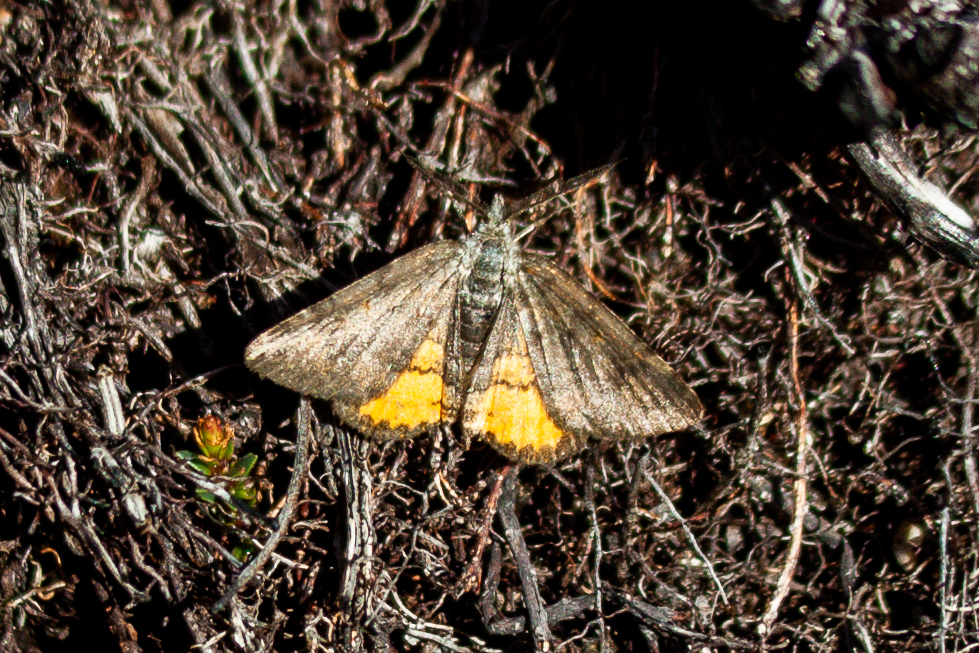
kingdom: Animalia
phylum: Arthropoda
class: Insecta
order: Lepidoptera
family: Geometridae
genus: Paranotoreas
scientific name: Paranotoreas brephosata
